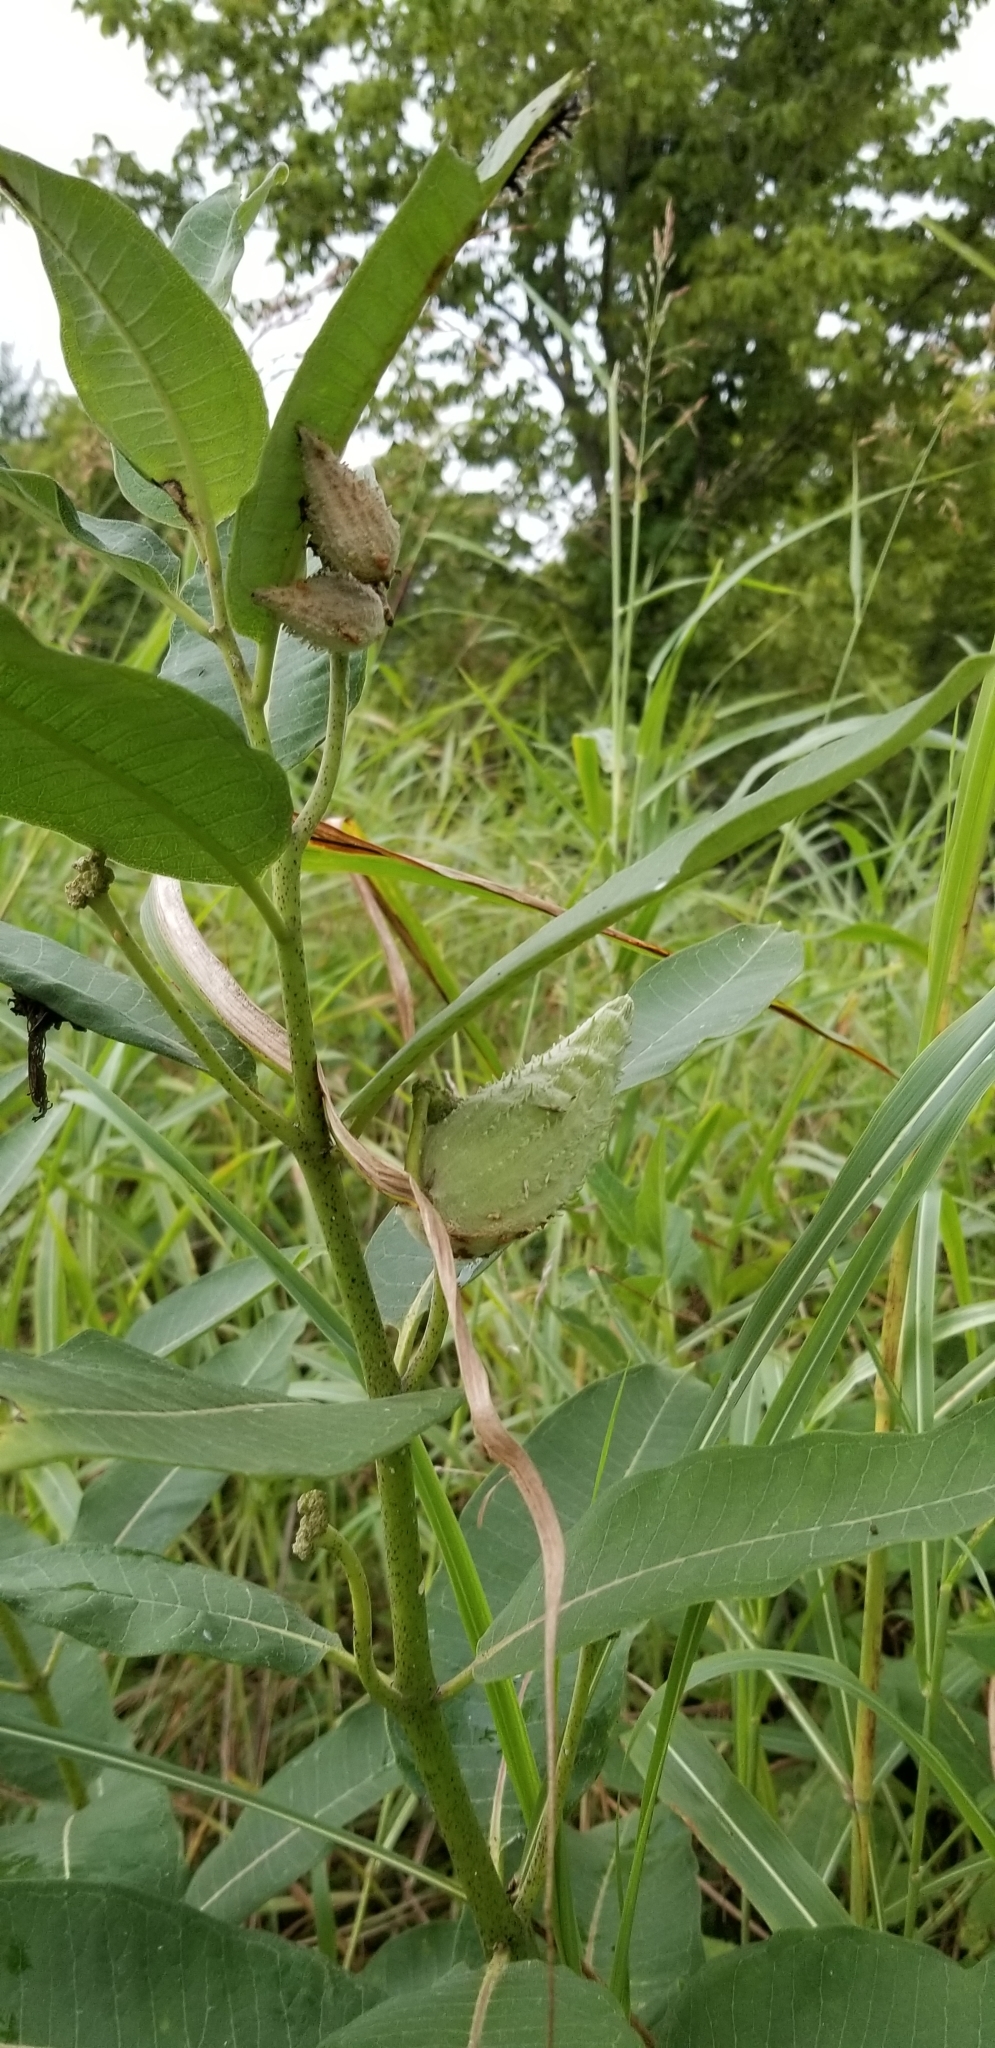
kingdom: Plantae
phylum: Tracheophyta
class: Magnoliopsida
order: Gentianales
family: Apocynaceae
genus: Asclepias
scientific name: Asclepias syriaca
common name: Common milkweed
